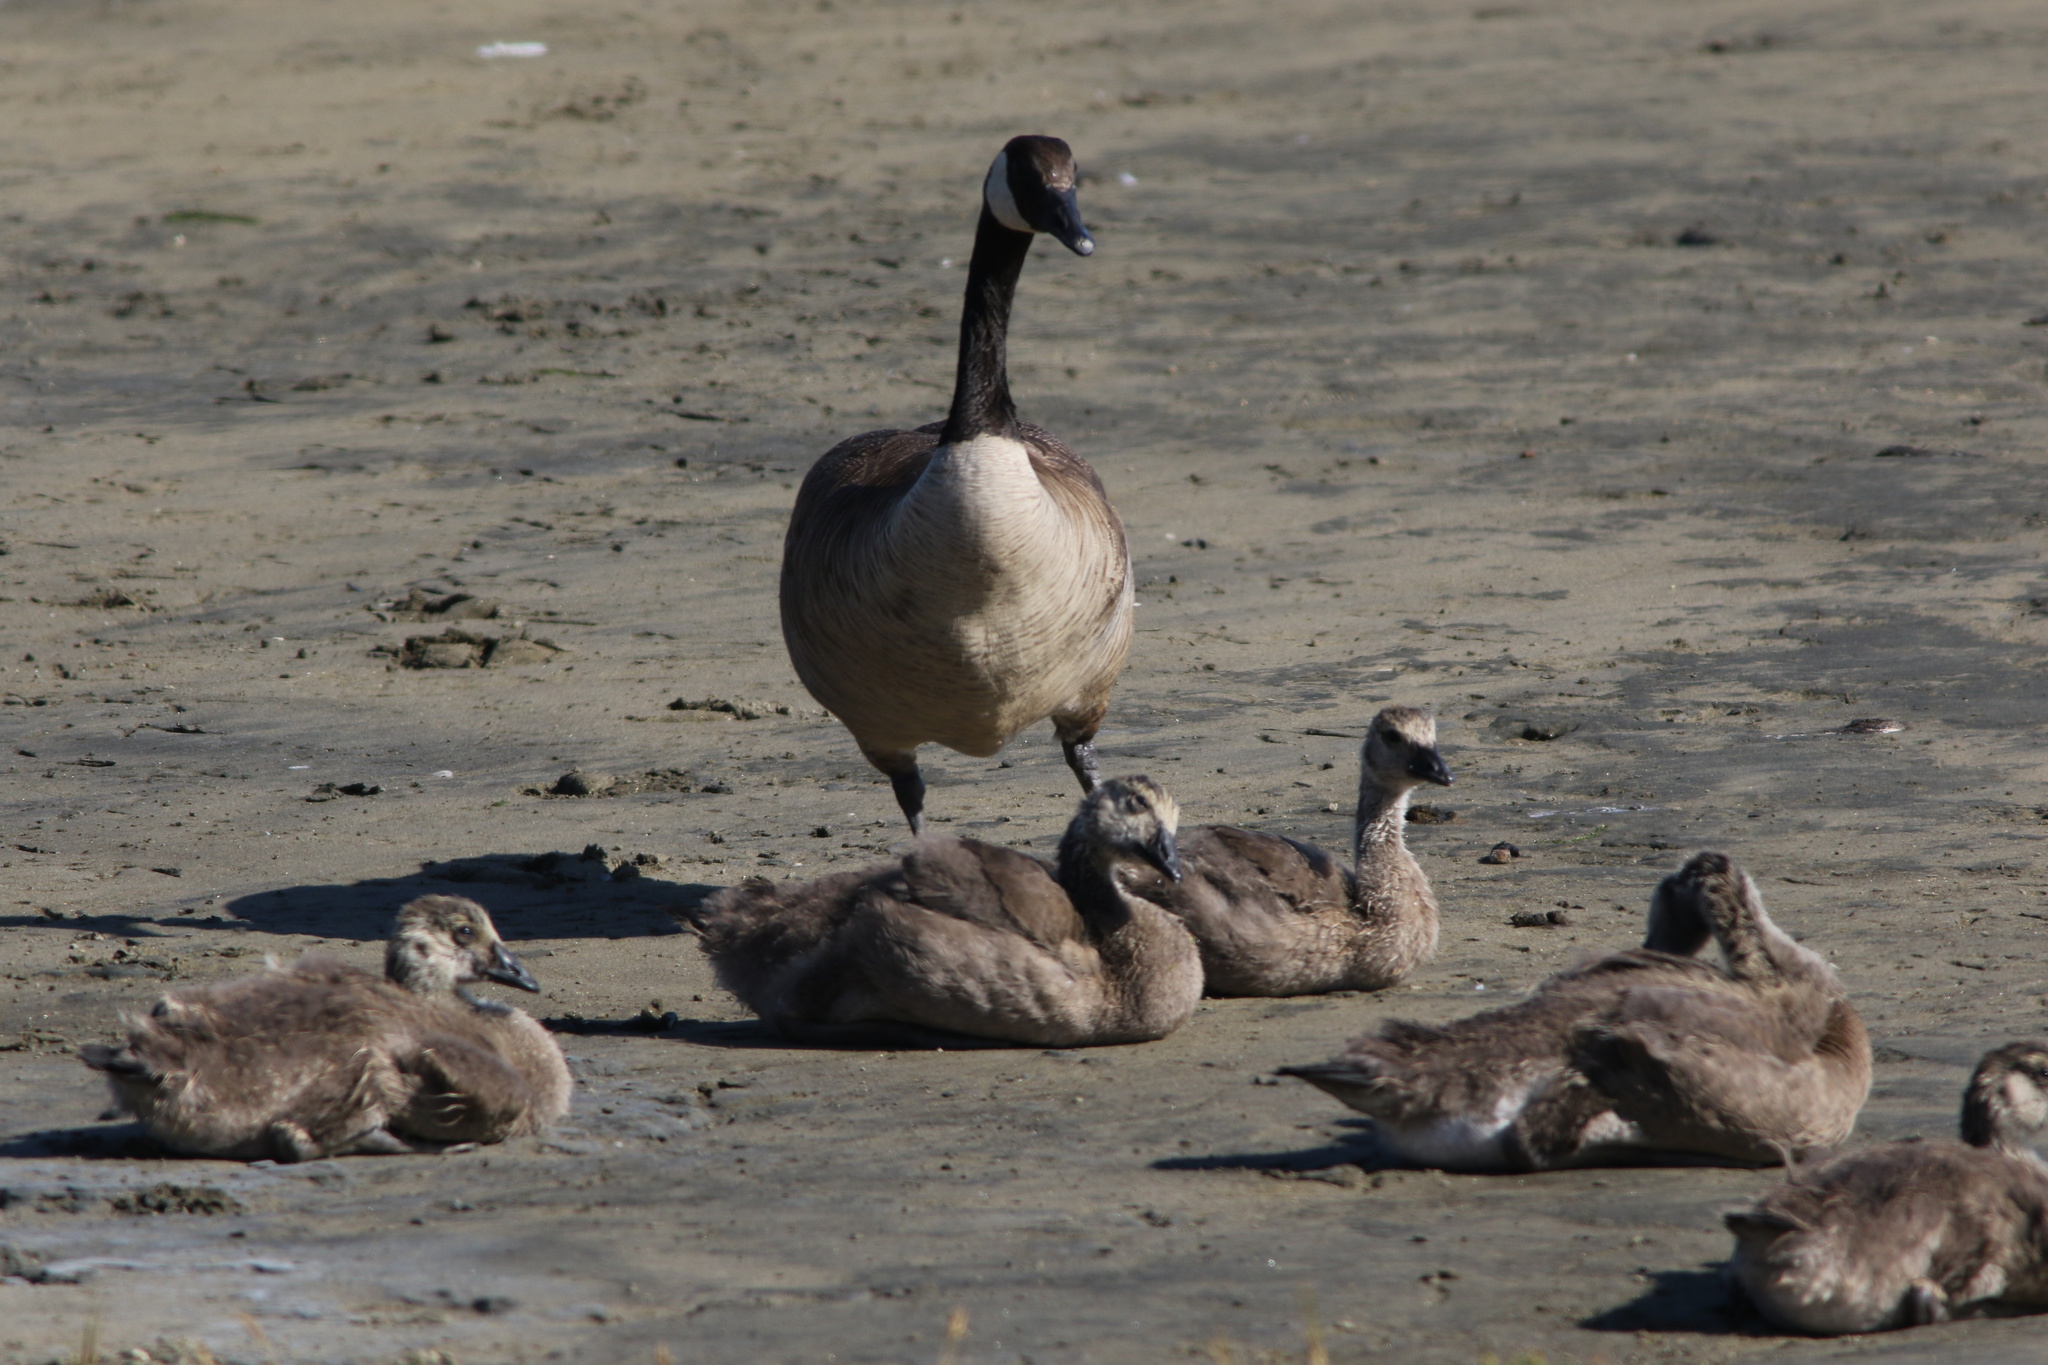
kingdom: Animalia
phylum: Chordata
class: Aves
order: Anseriformes
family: Anatidae
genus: Branta
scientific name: Branta canadensis
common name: Canada goose
